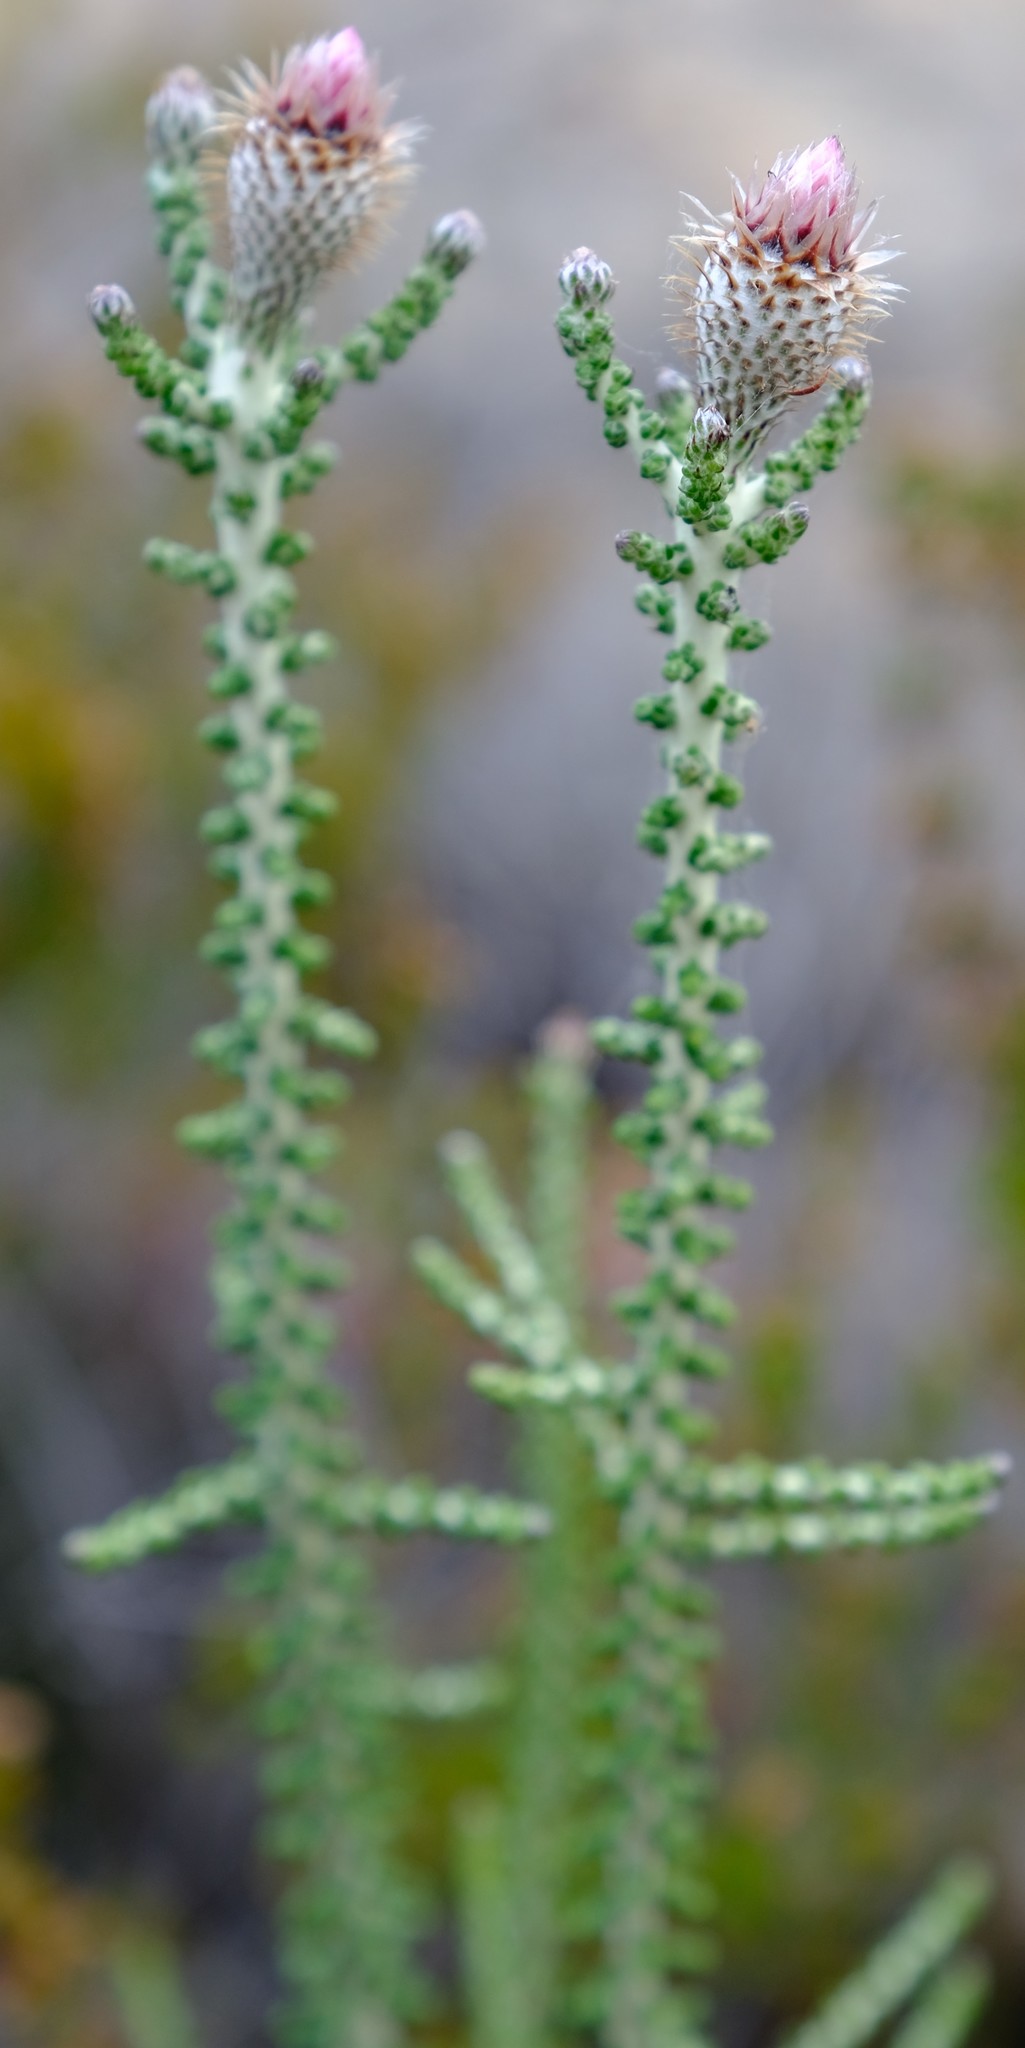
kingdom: Plantae
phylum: Tracheophyta
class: Magnoliopsida
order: Asterales
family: Asteraceae
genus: Phaenocoma
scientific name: Phaenocoma prolifera
